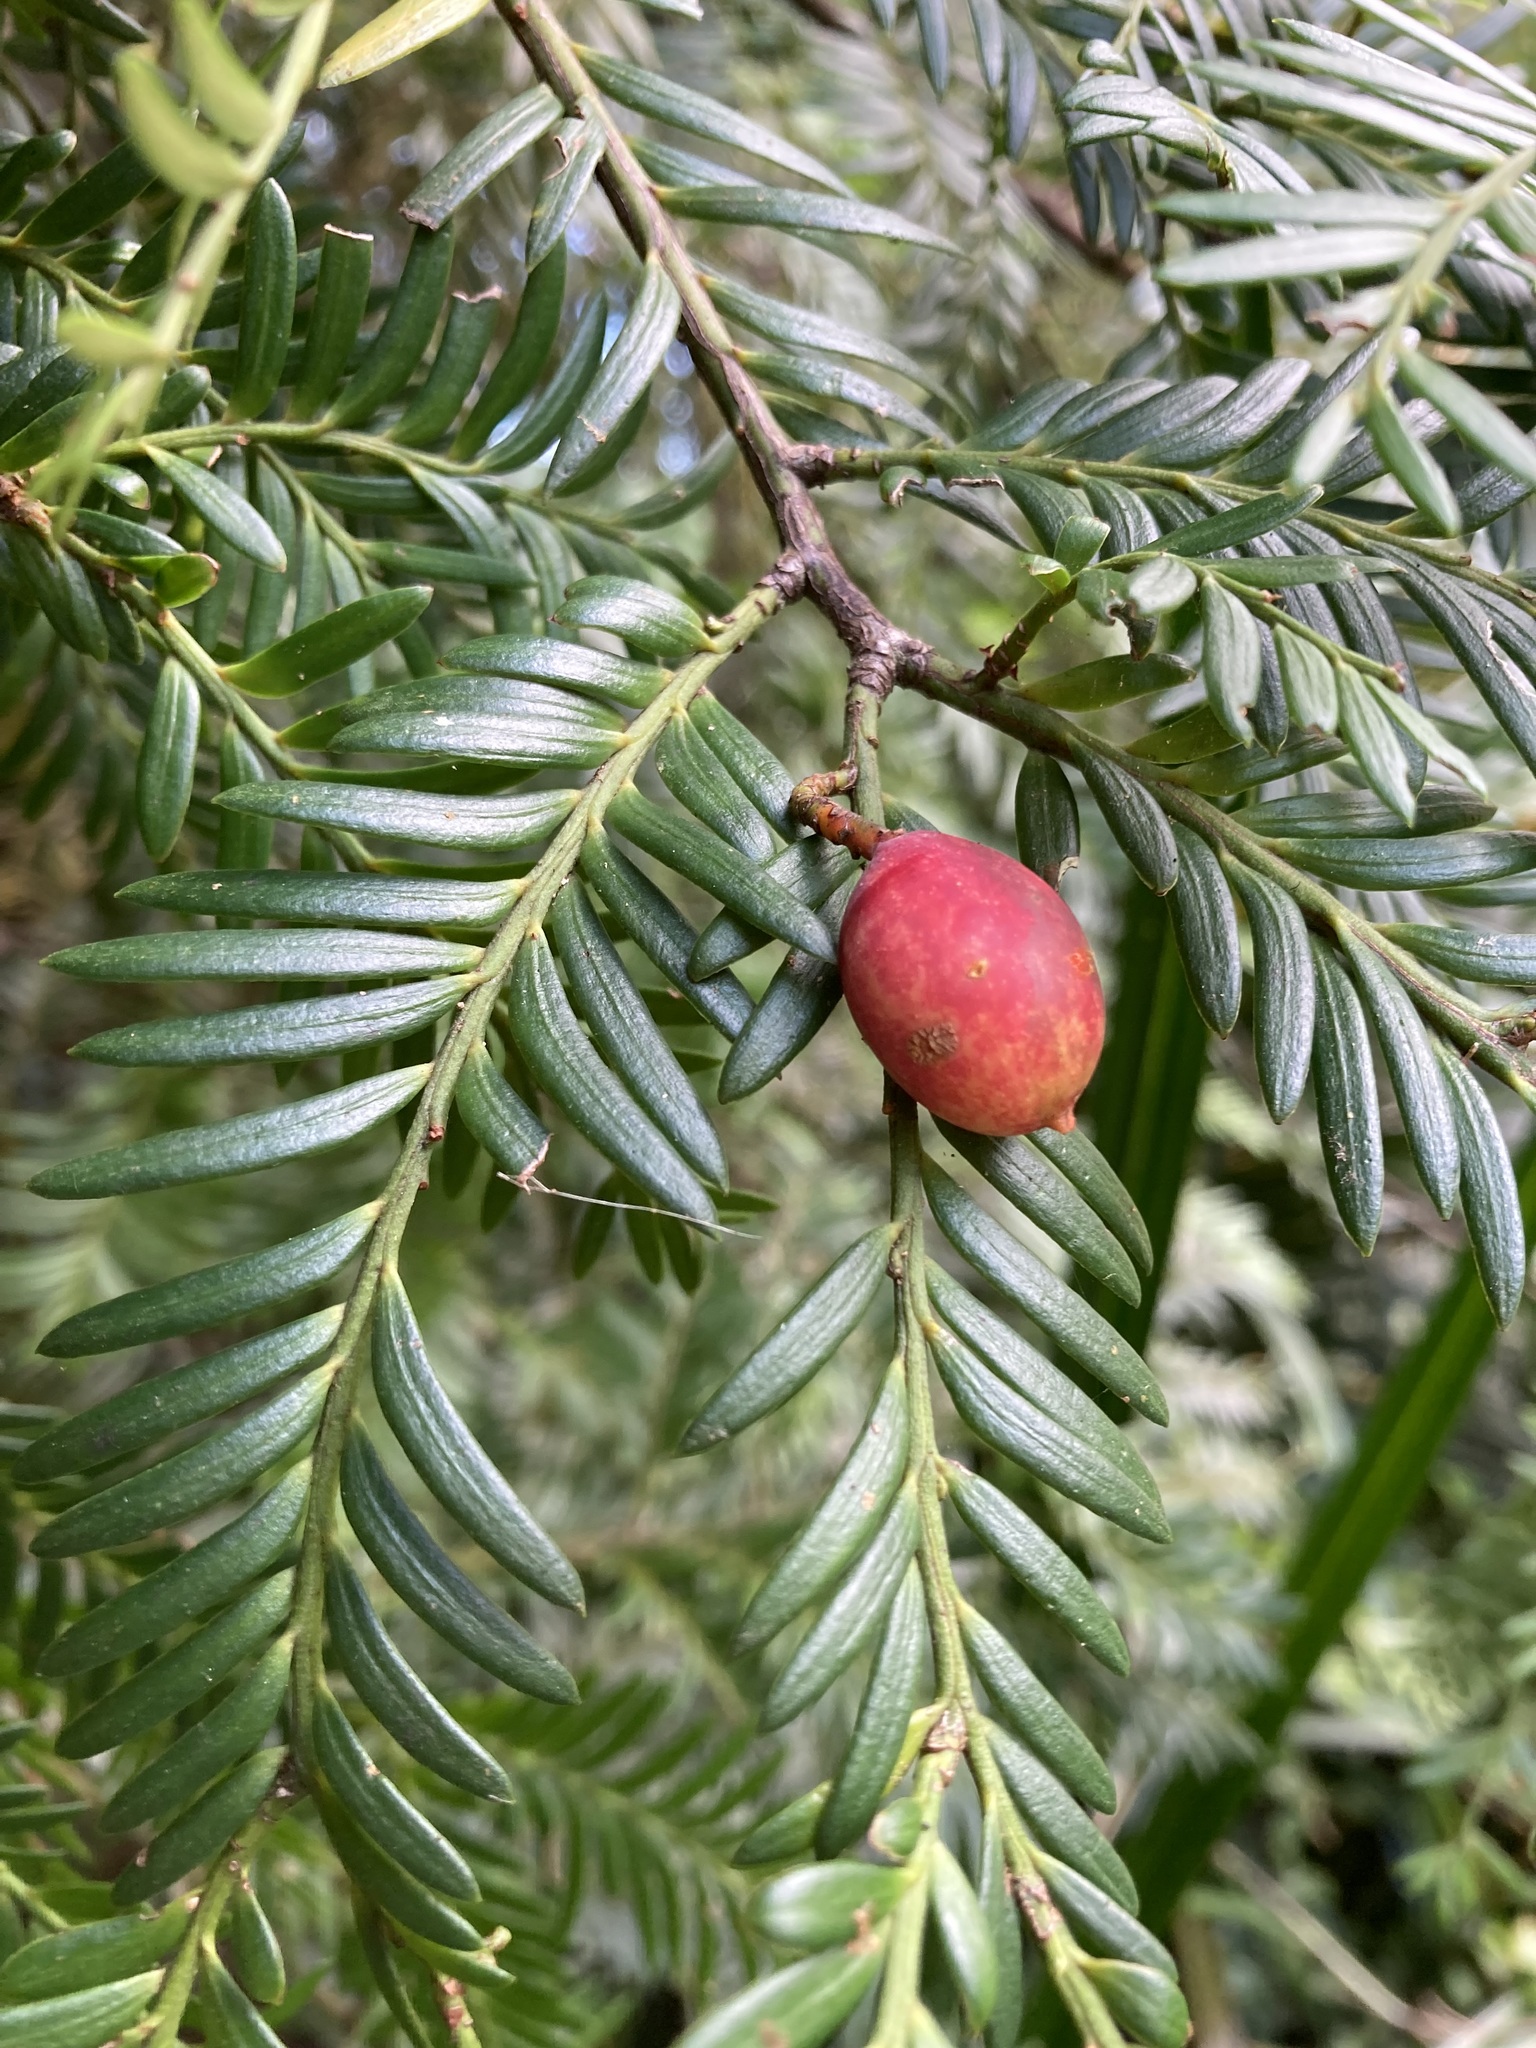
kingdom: Plantae
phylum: Tracheophyta
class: Pinopsida
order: Pinales
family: Podocarpaceae
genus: Prumnopitys
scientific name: Prumnopitys ferruginea
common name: Brown pine
